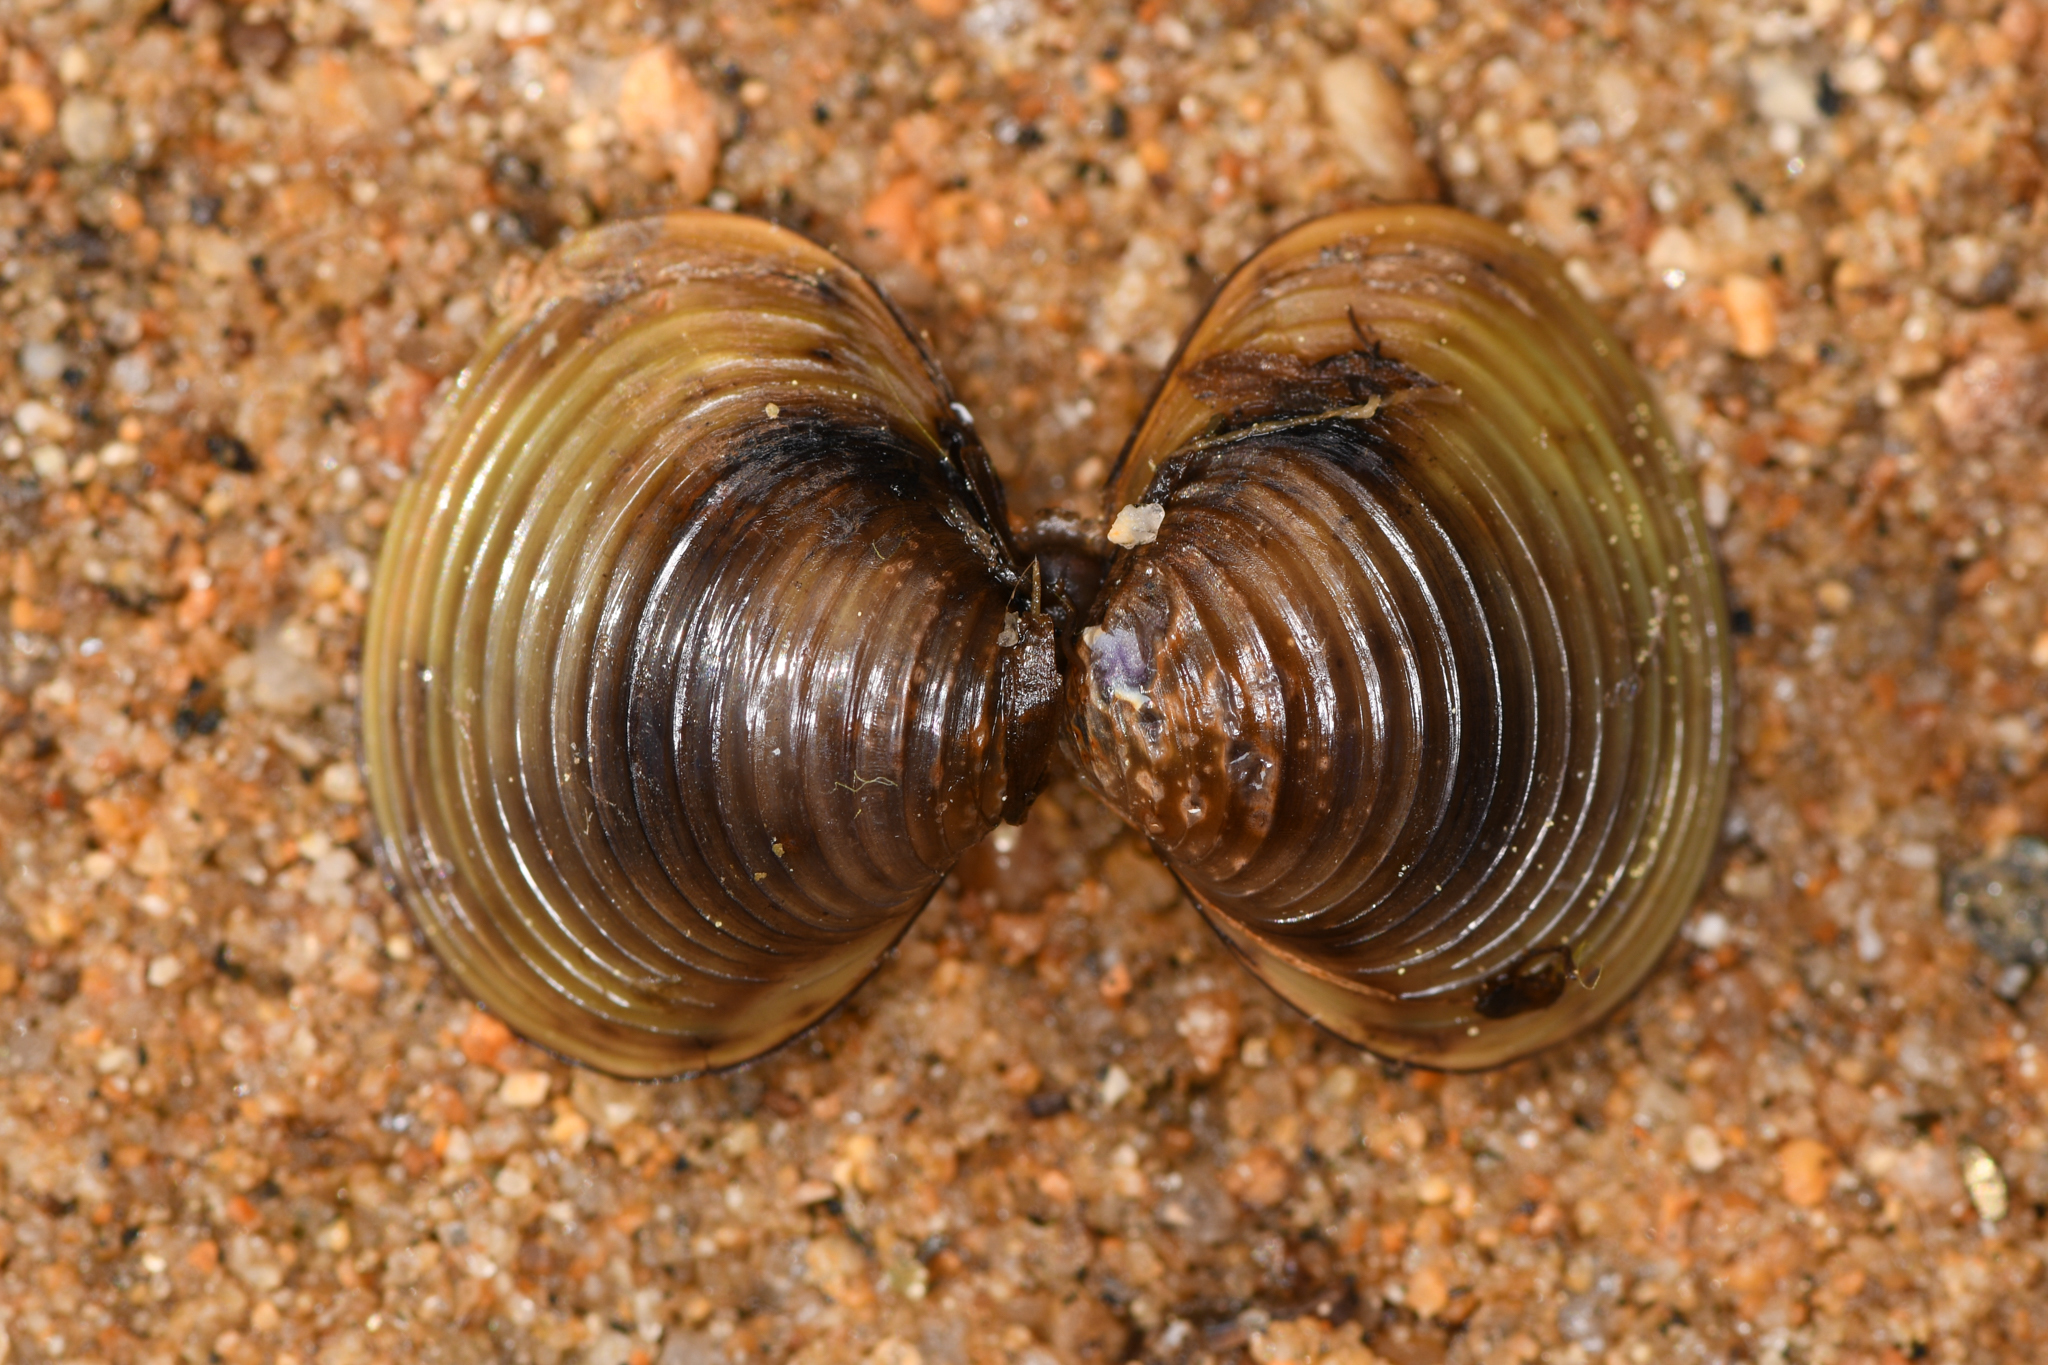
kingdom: Animalia
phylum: Mollusca
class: Bivalvia
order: Venerida
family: Cyrenidae
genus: Corbicula
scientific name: Corbicula fluminea
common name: Asian clam
